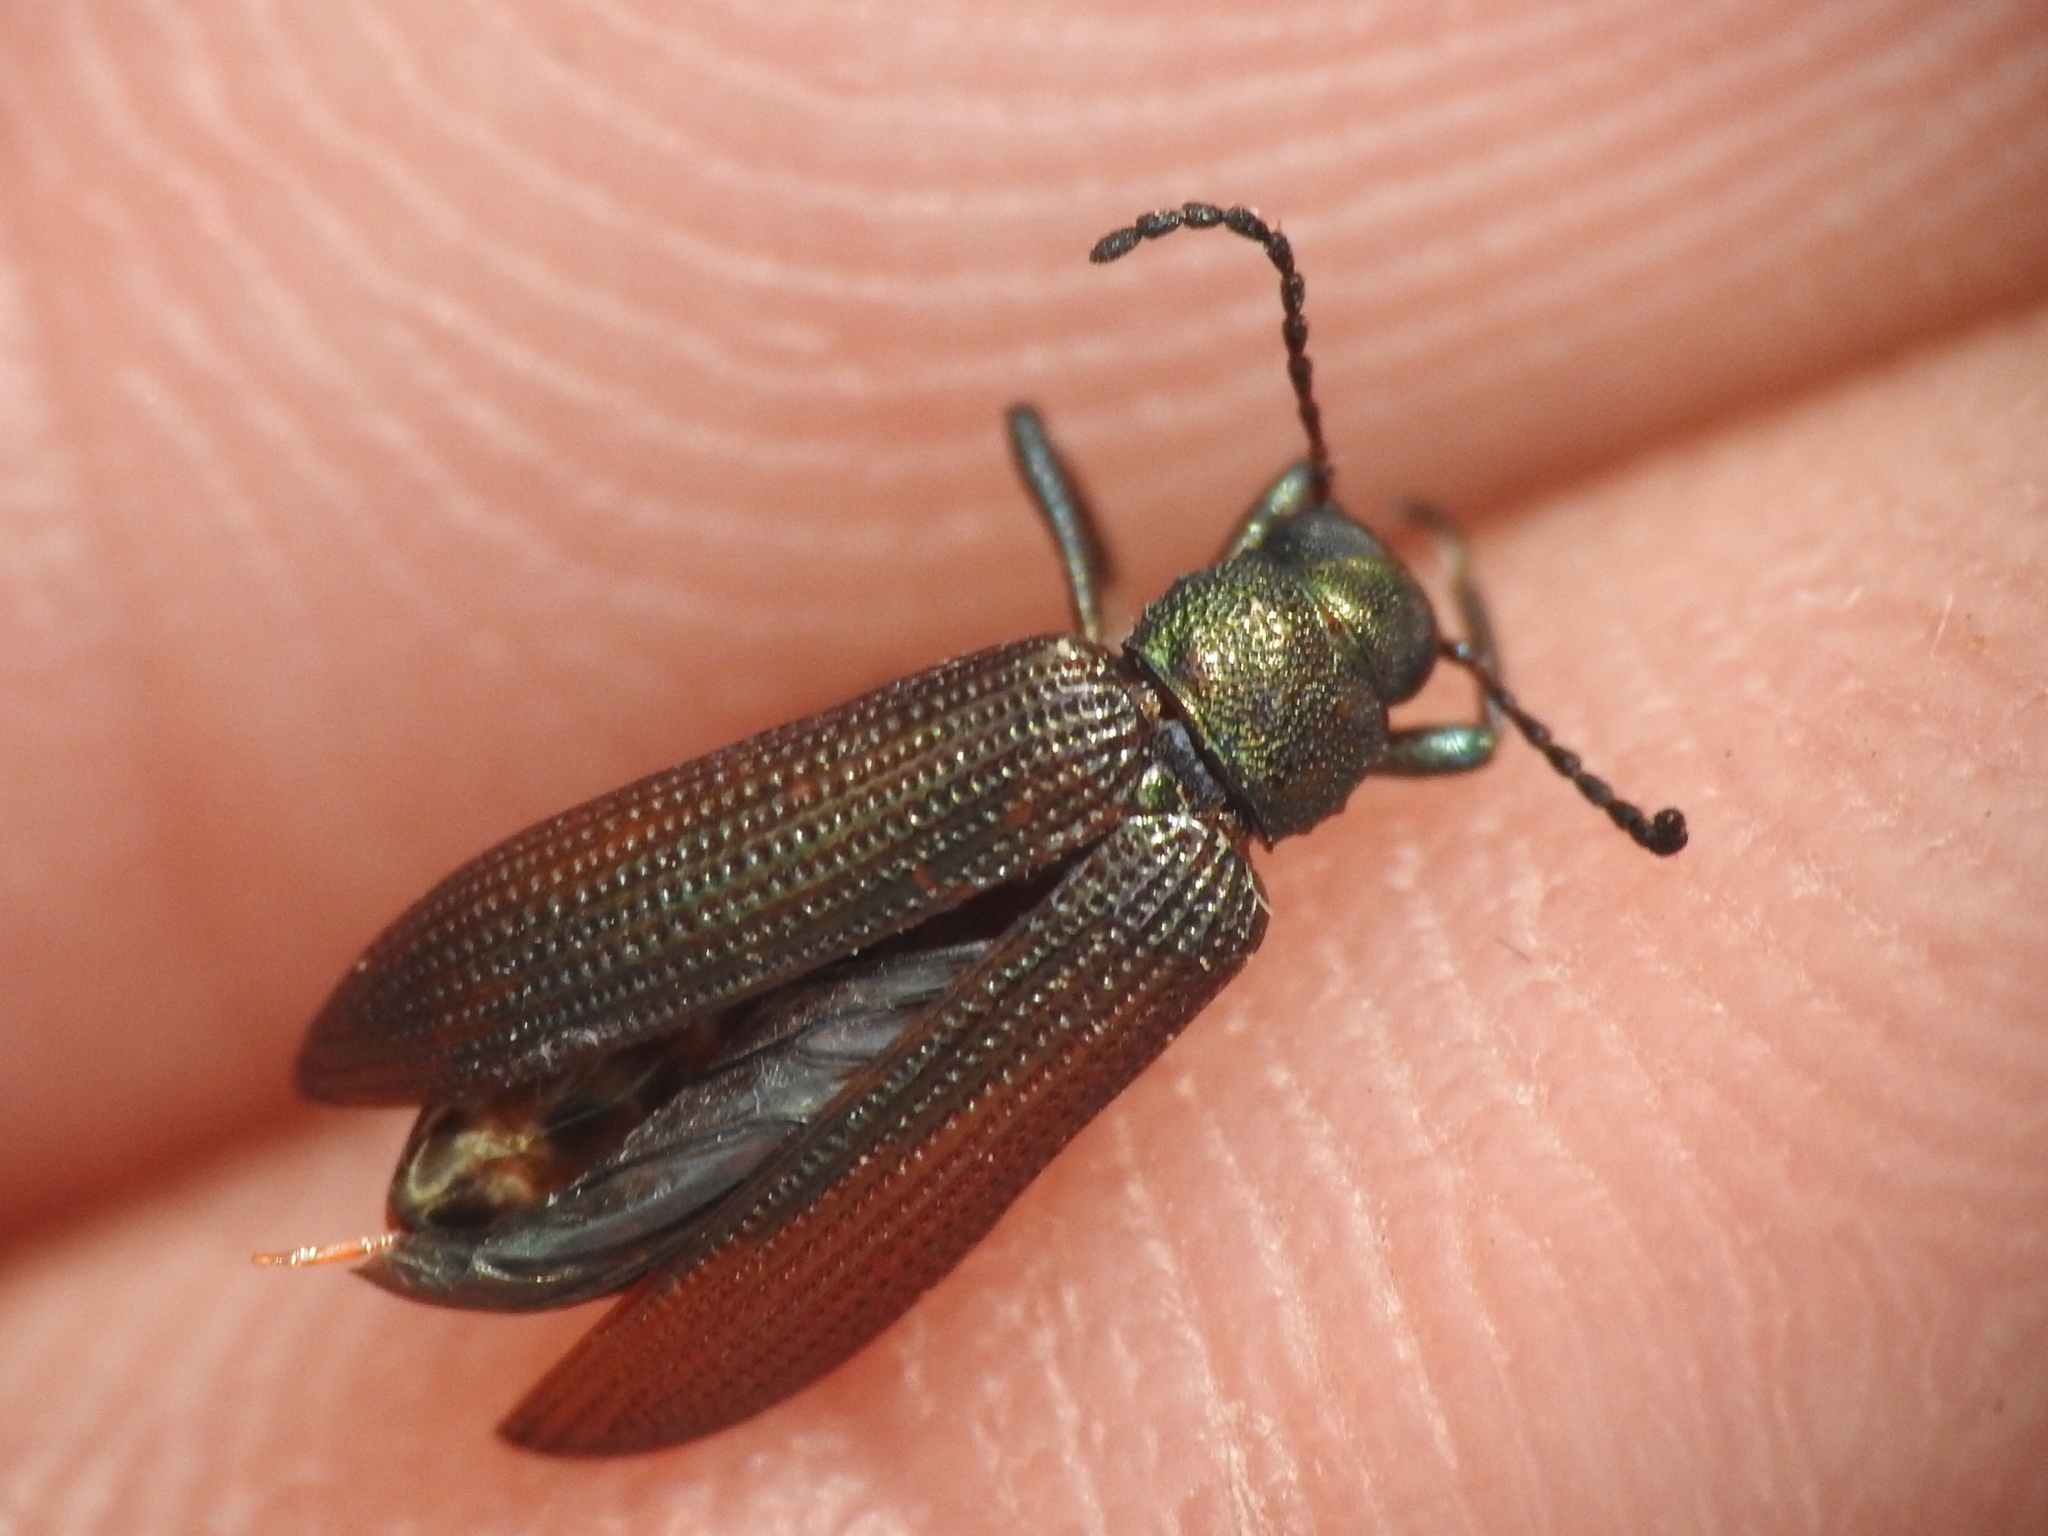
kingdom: Animalia
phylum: Arthropoda
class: Insecta
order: Coleoptera
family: Tenebrionidae
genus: Strongylium
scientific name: Strongylium
